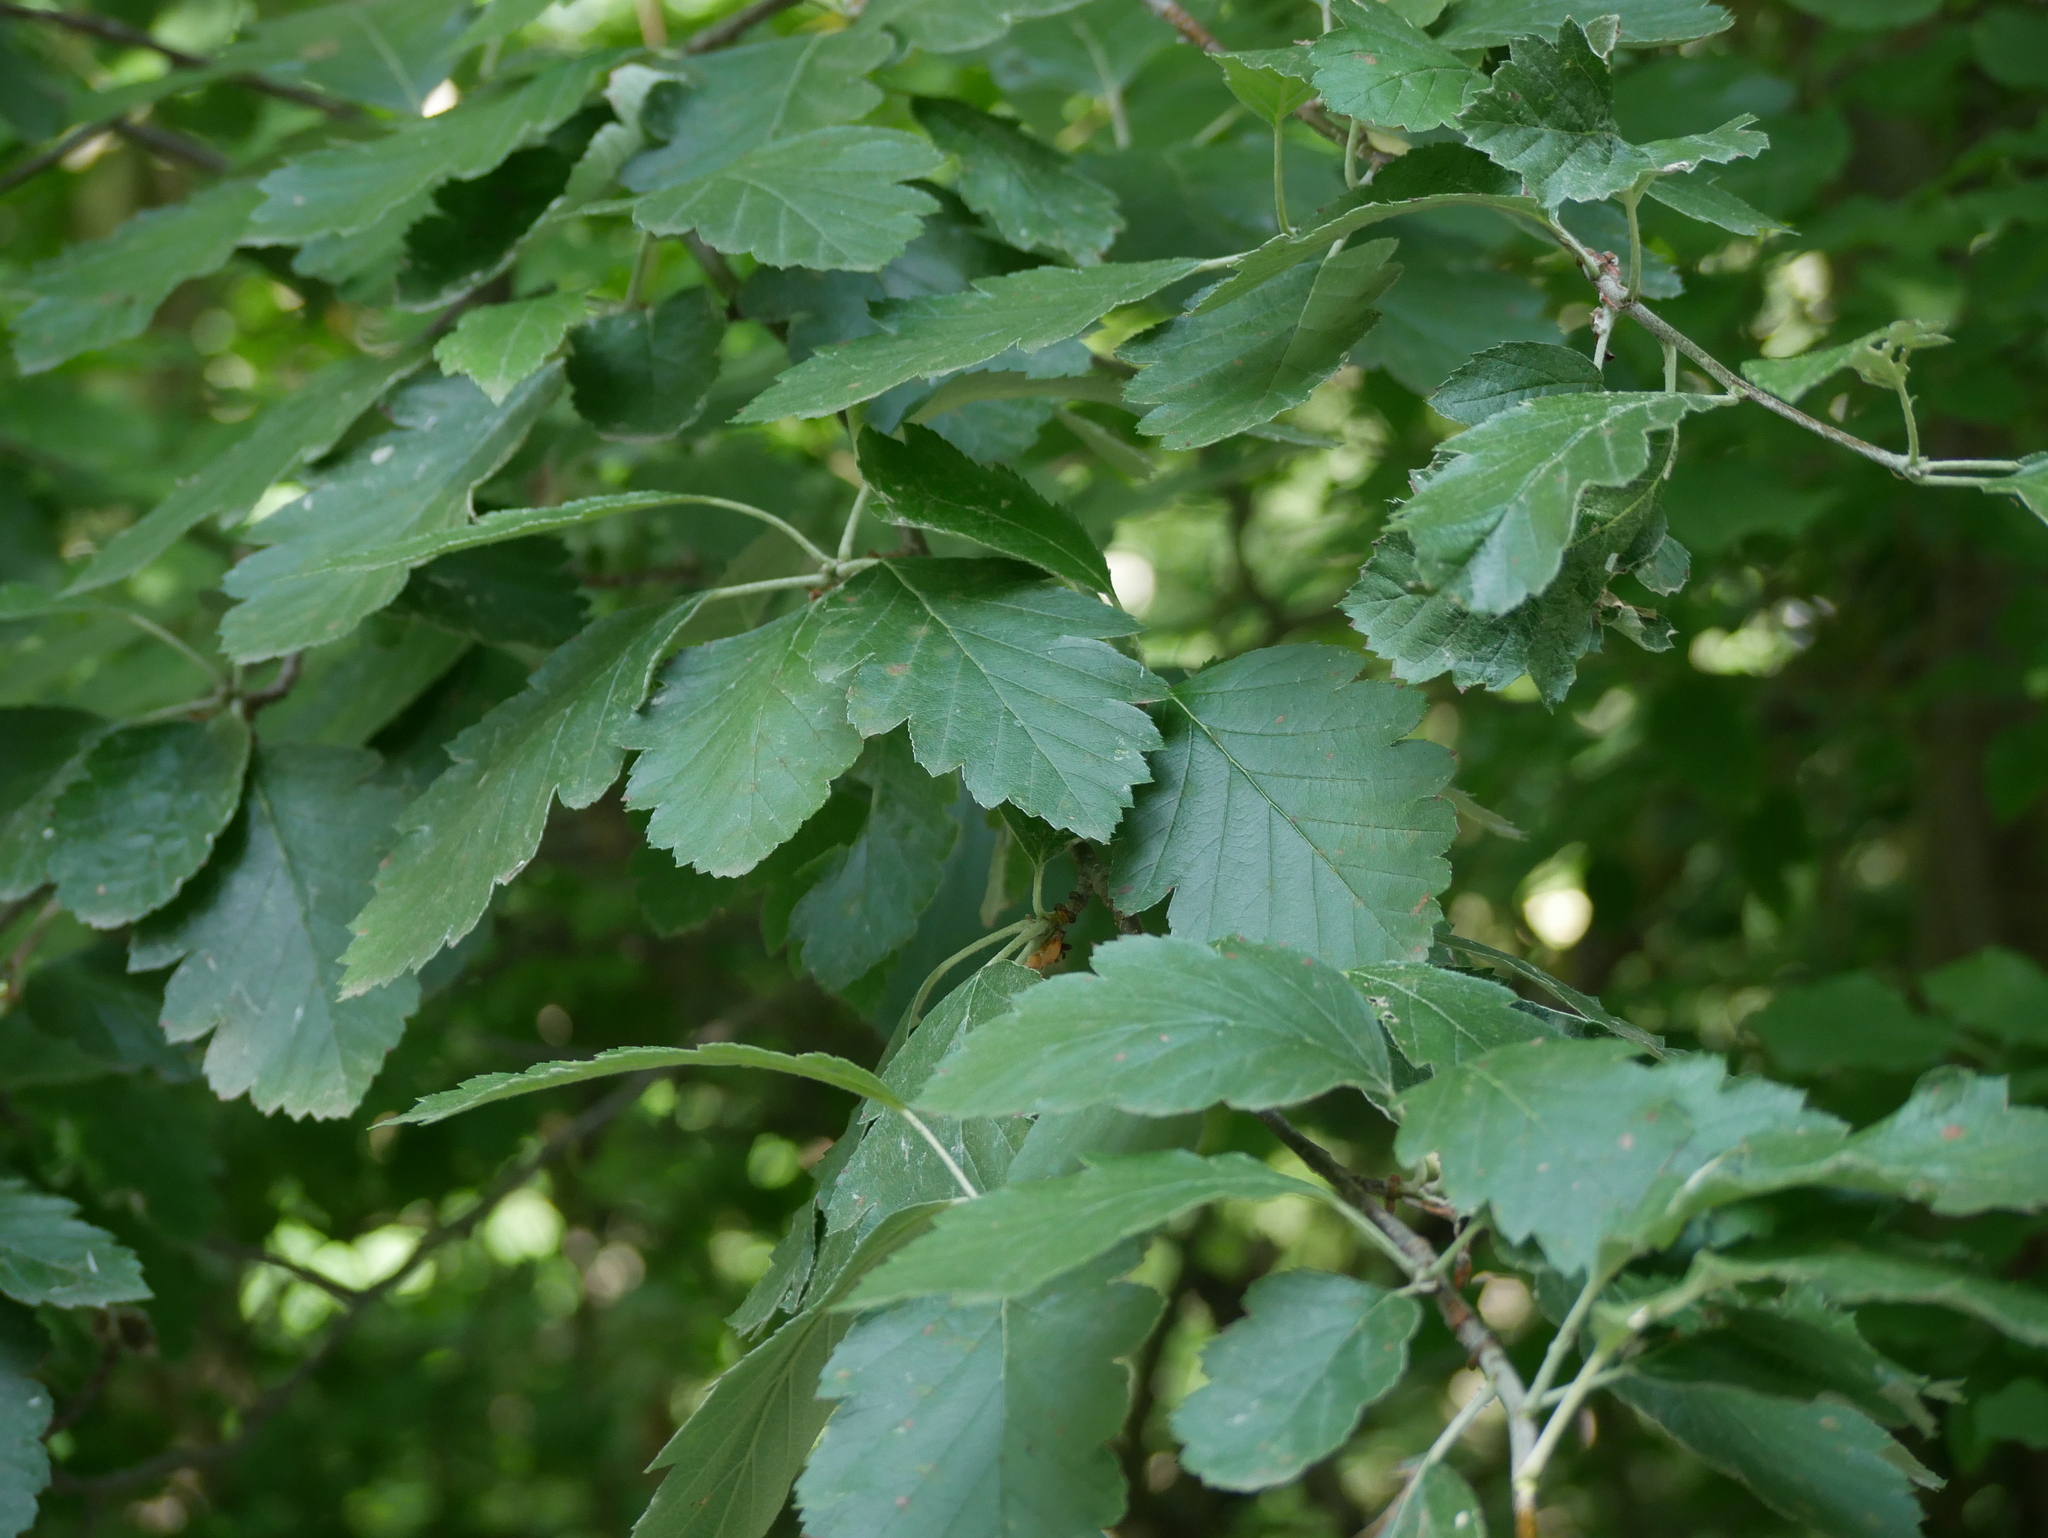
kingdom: Plantae
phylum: Tracheophyta
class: Magnoliopsida
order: Rosales
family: Rosaceae
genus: Scandosorbus
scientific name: Scandosorbus intermedia
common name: Swedish whitebeam
